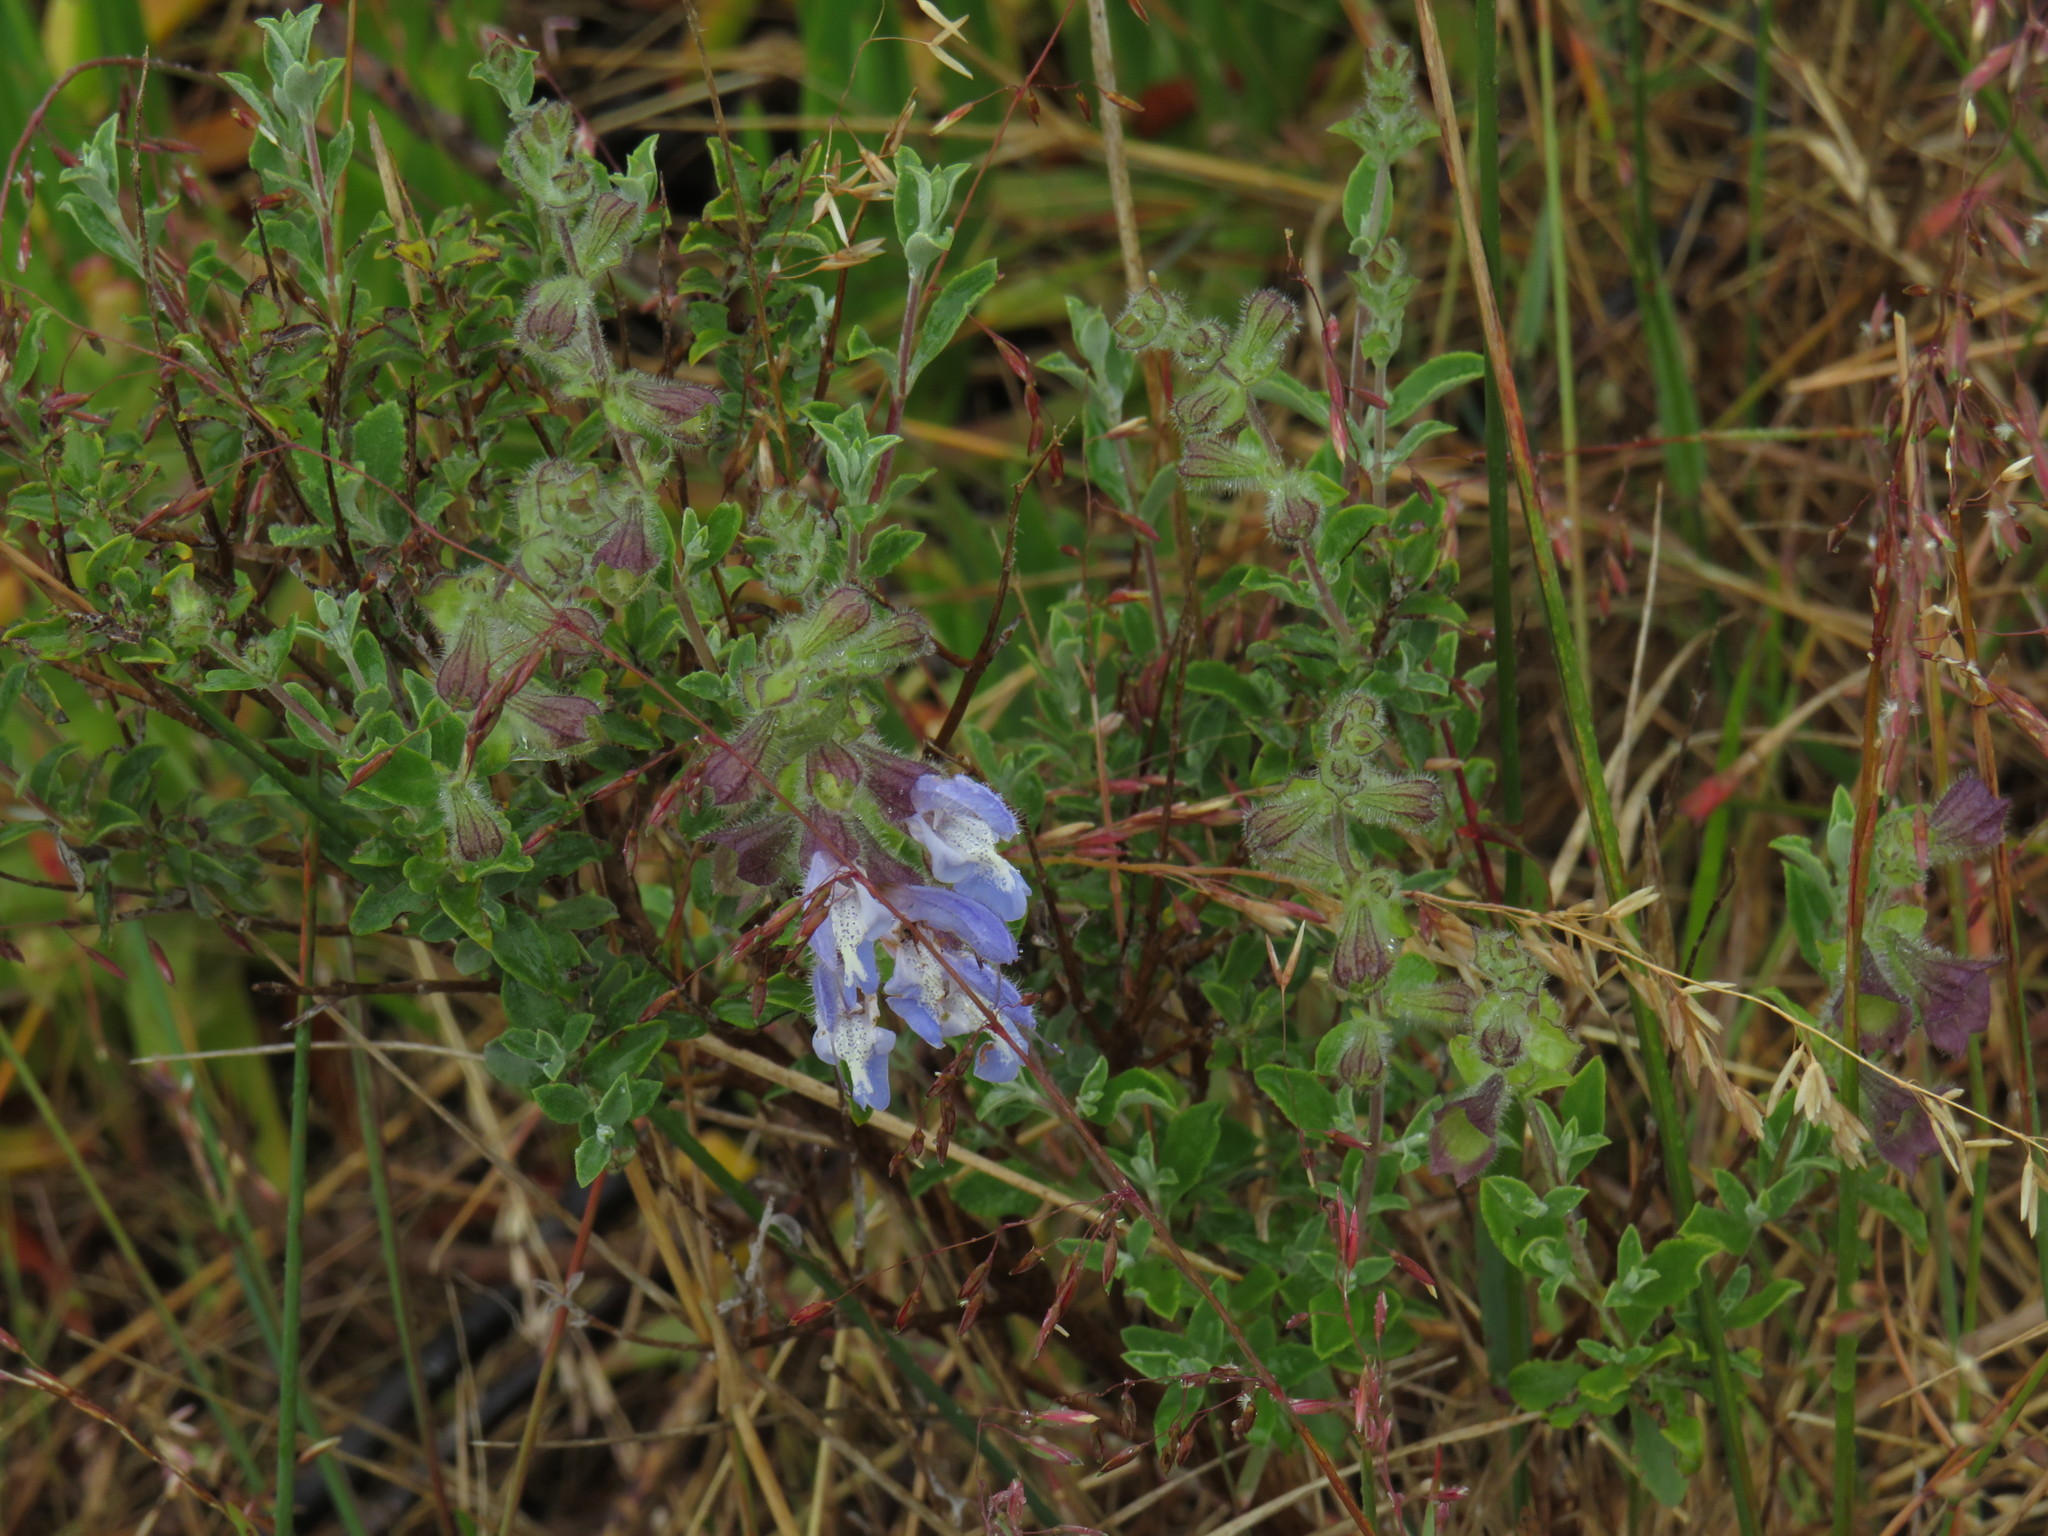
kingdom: Plantae
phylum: Tracheophyta
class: Magnoliopsida
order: Lamiales
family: Lamiaceae
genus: Salvia
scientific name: Salvia africana
